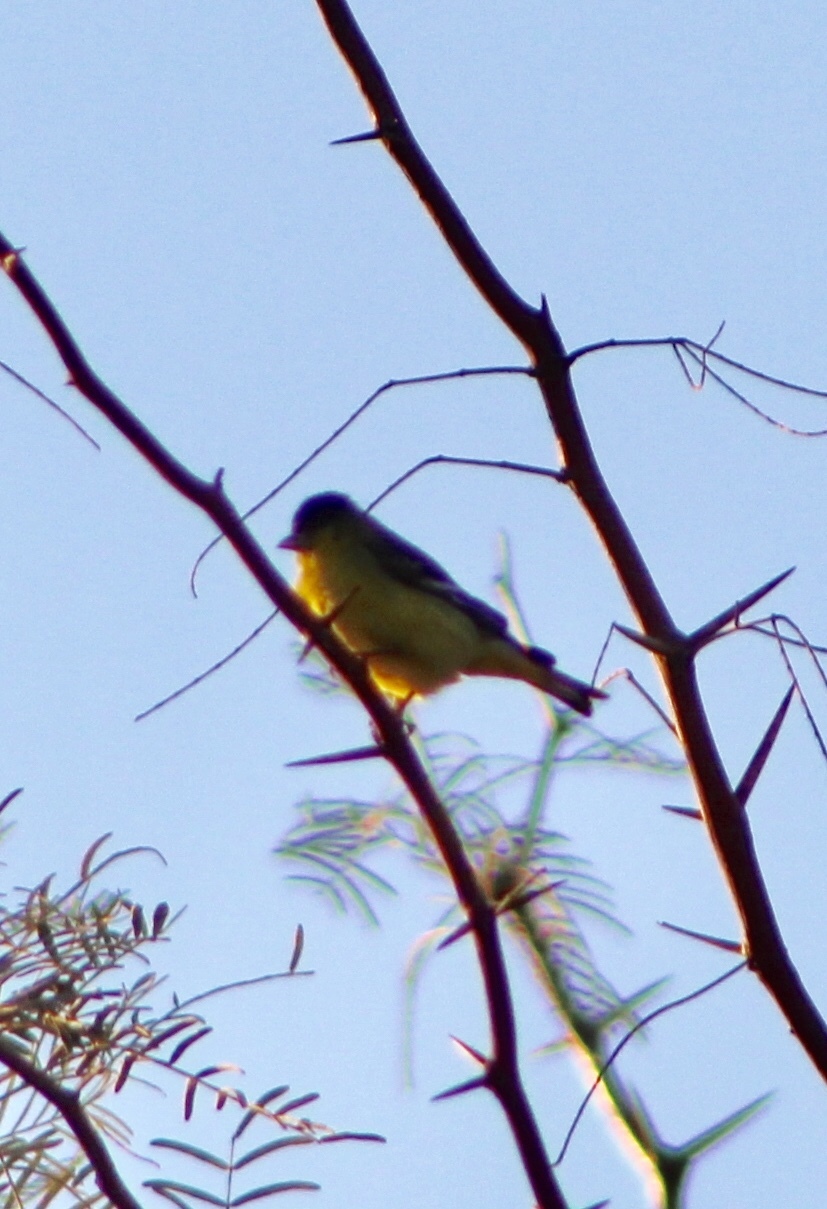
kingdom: Animalia
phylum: Chordata
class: Aves
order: Passeriformes
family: Fringillidae
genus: Spinus
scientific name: Spinus psaltria
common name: Lesser goldfinch
